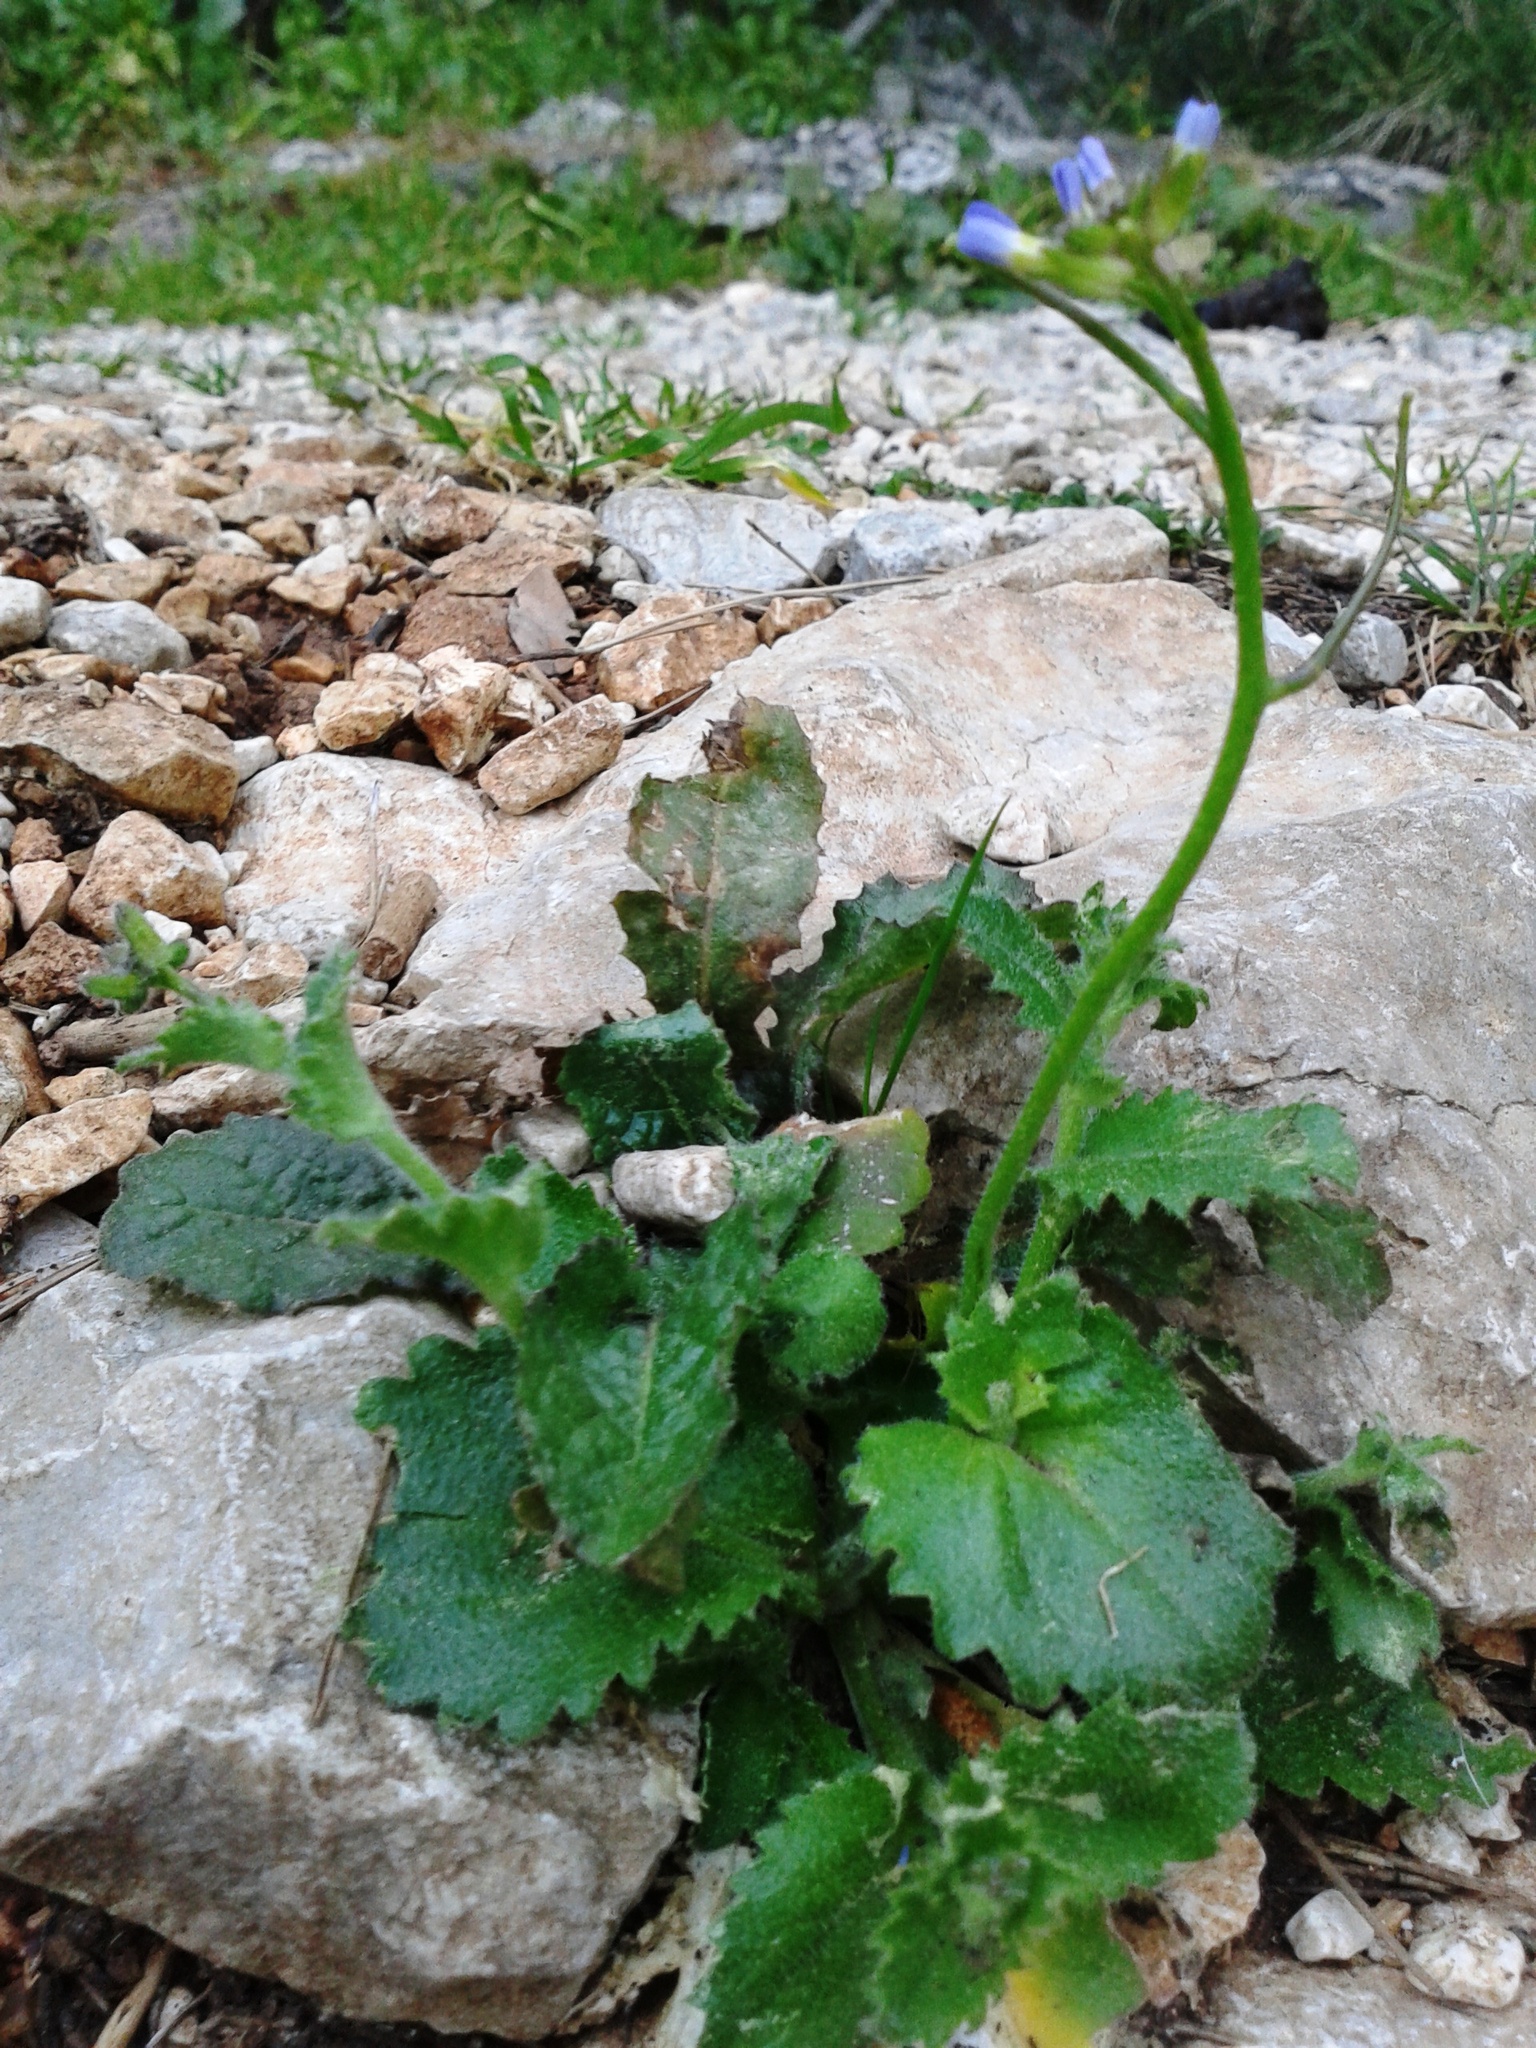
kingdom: Plantae
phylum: Tracheophyta
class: Magnoliopsida
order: Brassicales
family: Brassicaceae
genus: Arabis
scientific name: Arabis verna
